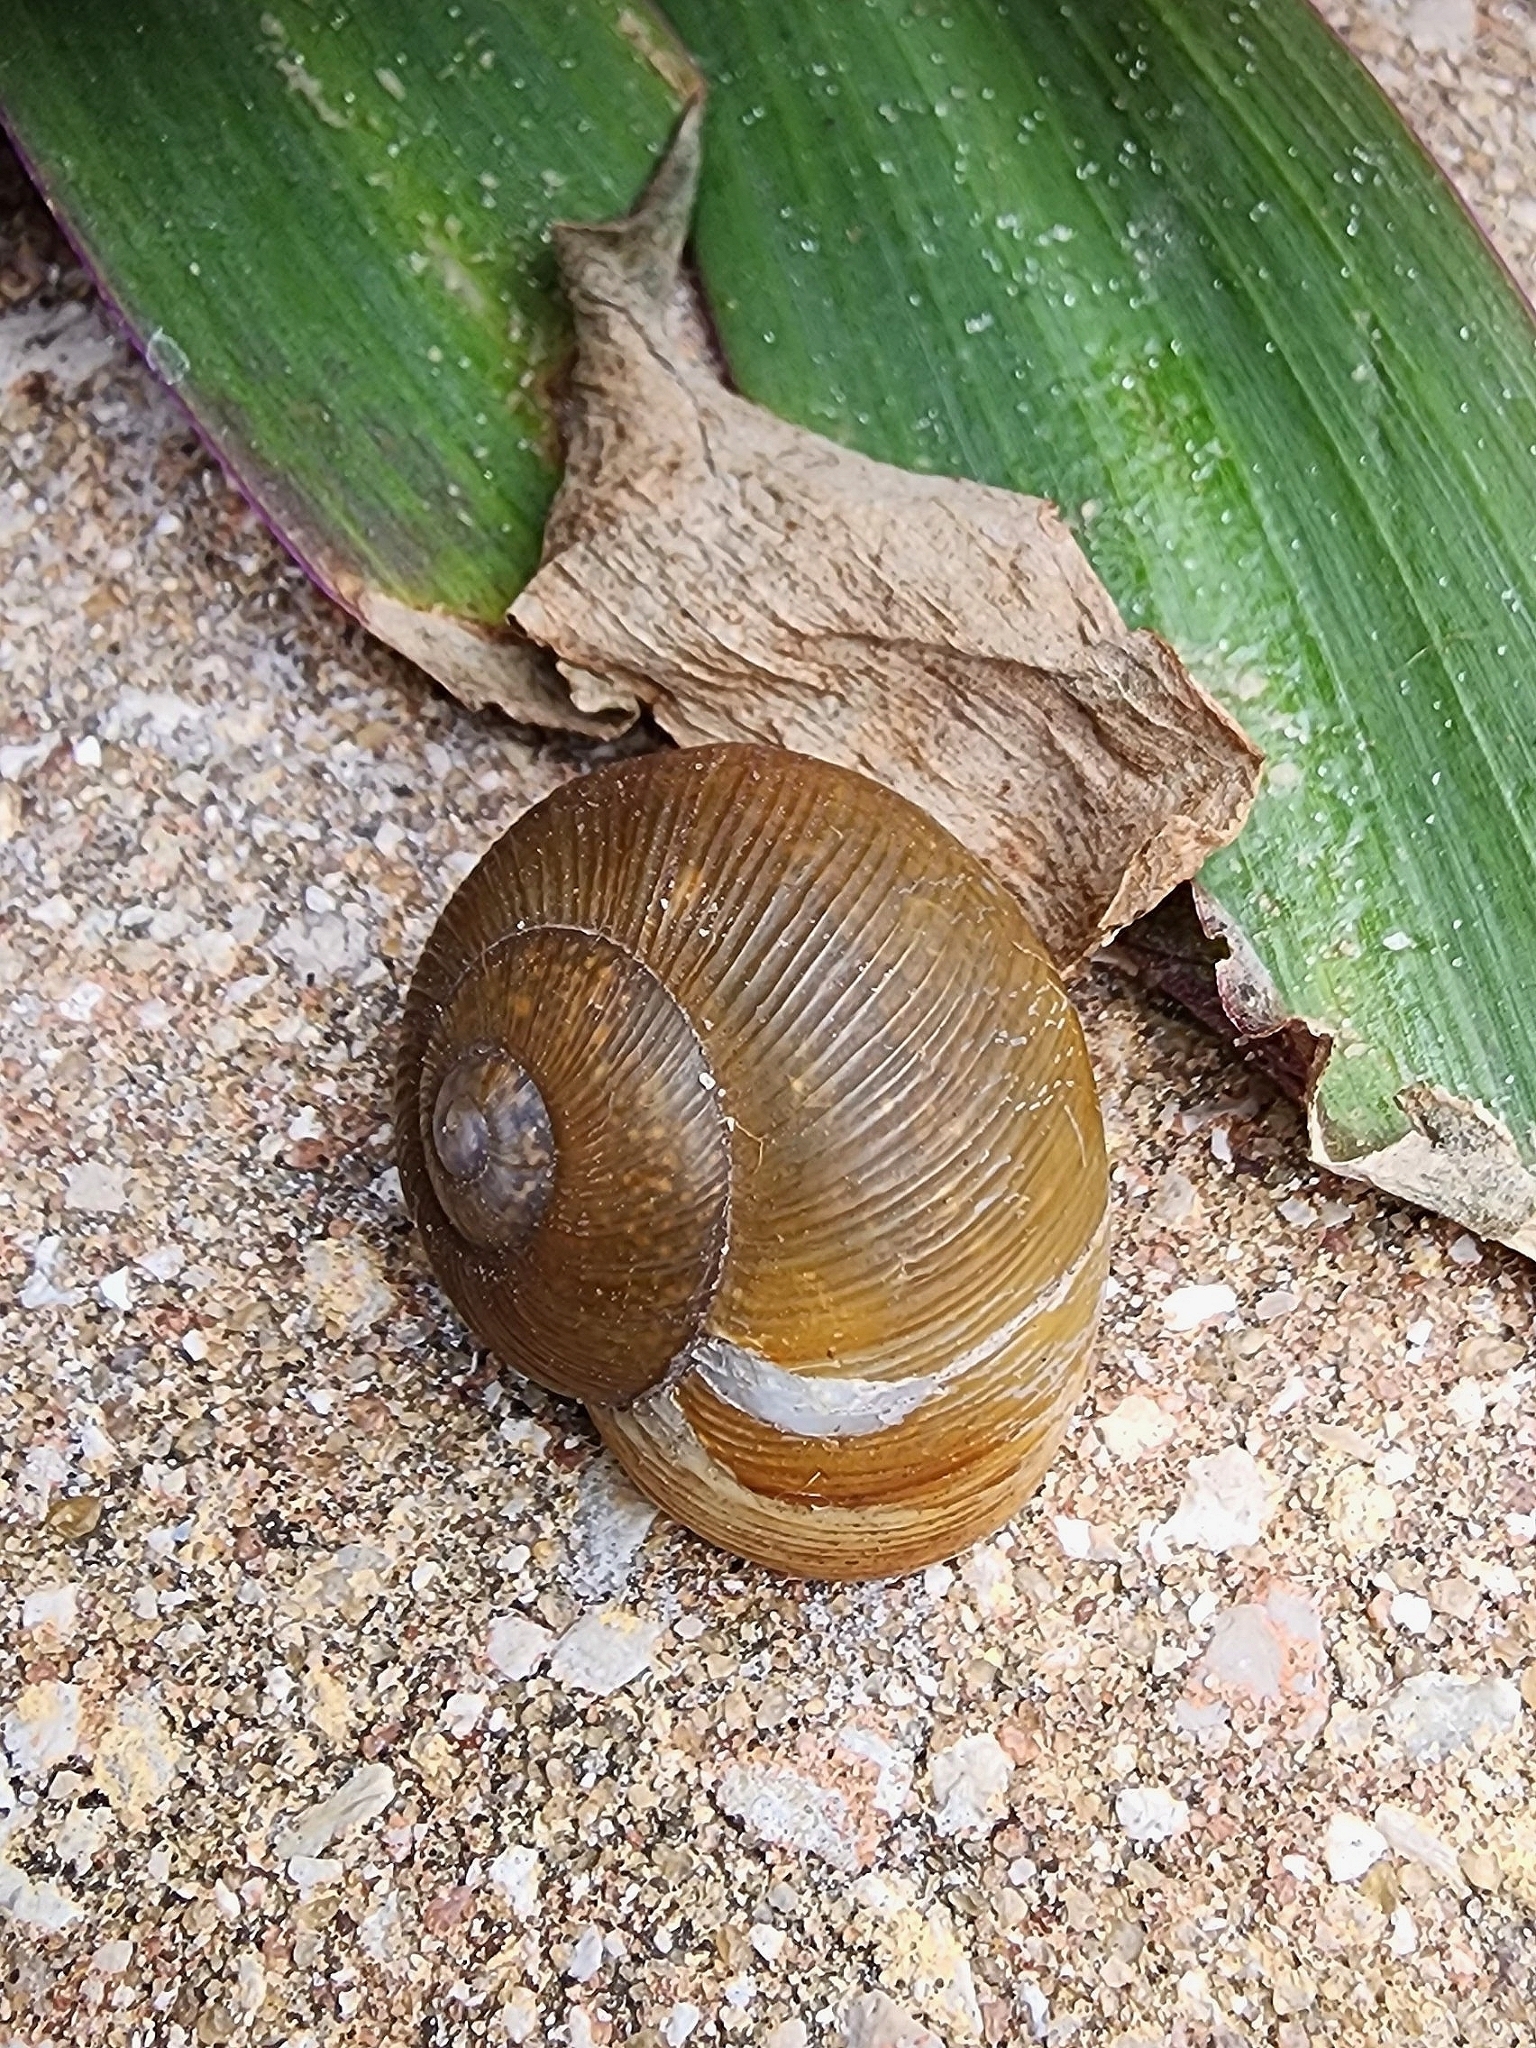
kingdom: Animalia
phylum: Mollusca
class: Gastropoda
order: Stylommatophora
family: Zachrysiidae
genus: Zachrysia
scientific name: Zachrysia provisoria
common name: Garden zachrysia
